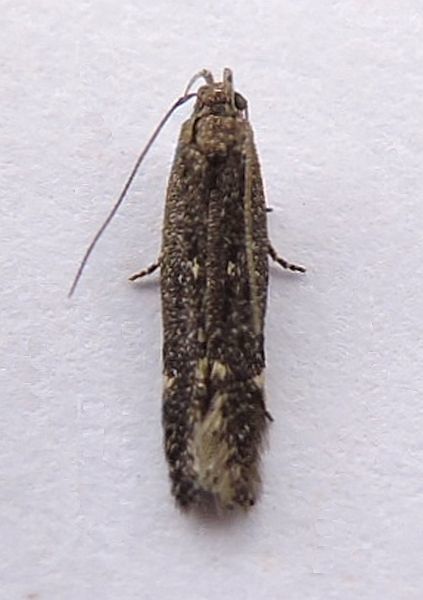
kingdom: Animalia
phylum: Arthropoda
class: Insecta
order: Lepidoptera
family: Gelechiidae
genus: Aproaerema
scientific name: Aproaerema palpilineella
